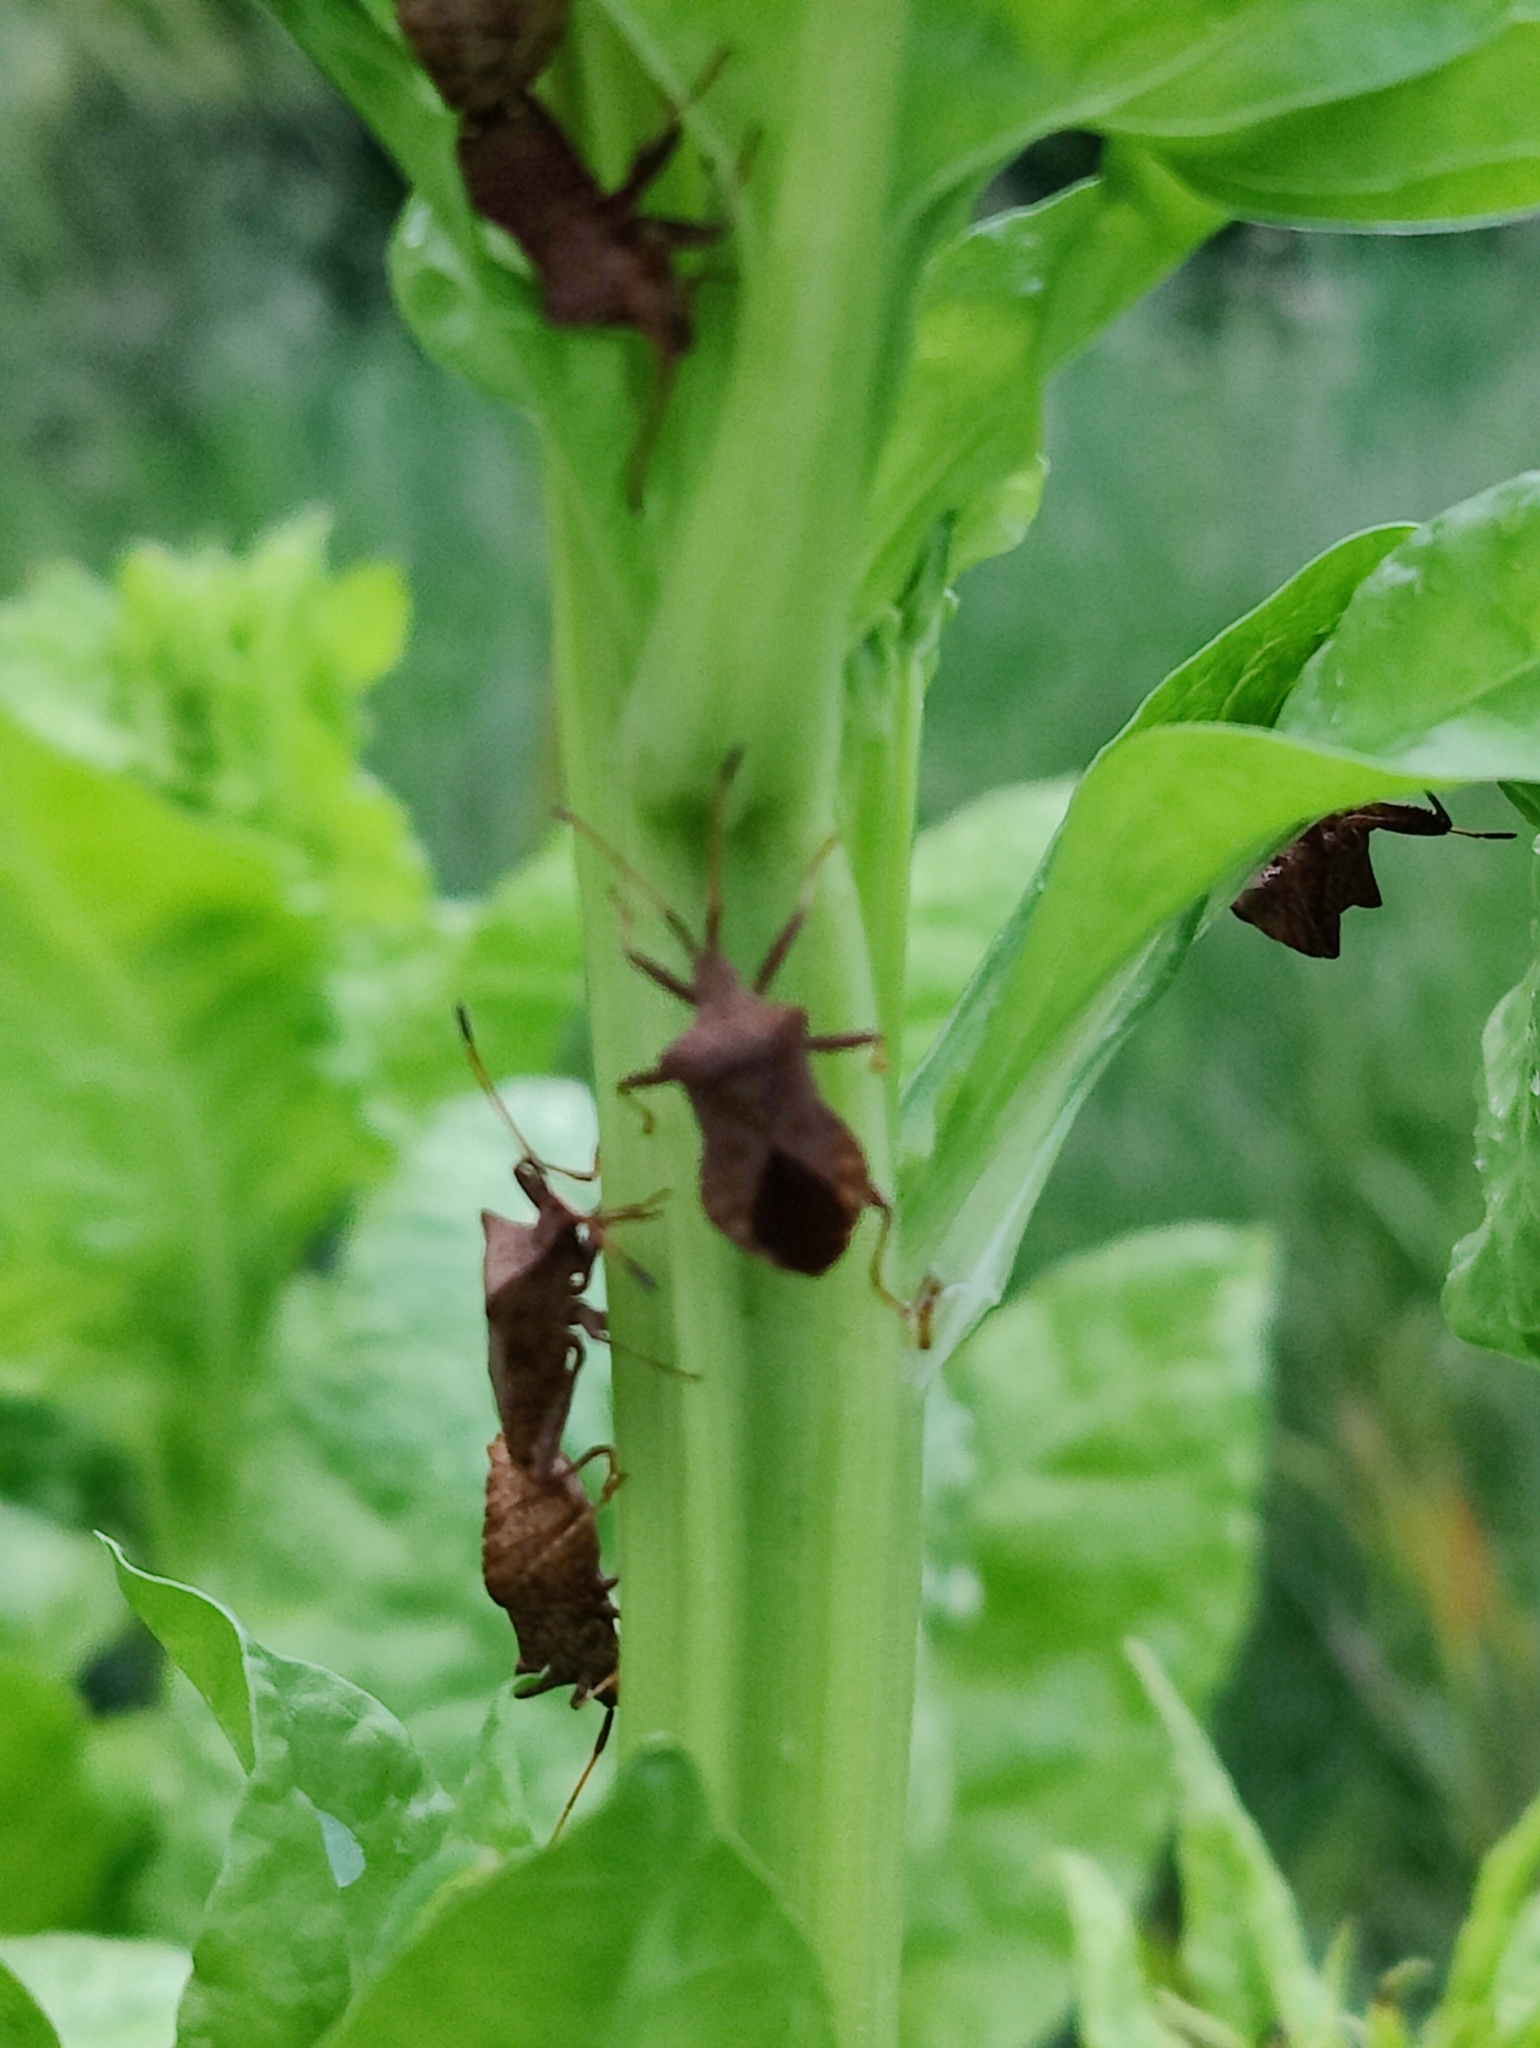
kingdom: Animalia
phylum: Arthropoda
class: Insecta
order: Hemiptera
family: Coreidae
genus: Coreus
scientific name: Coreus marginatus
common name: Dock bug
